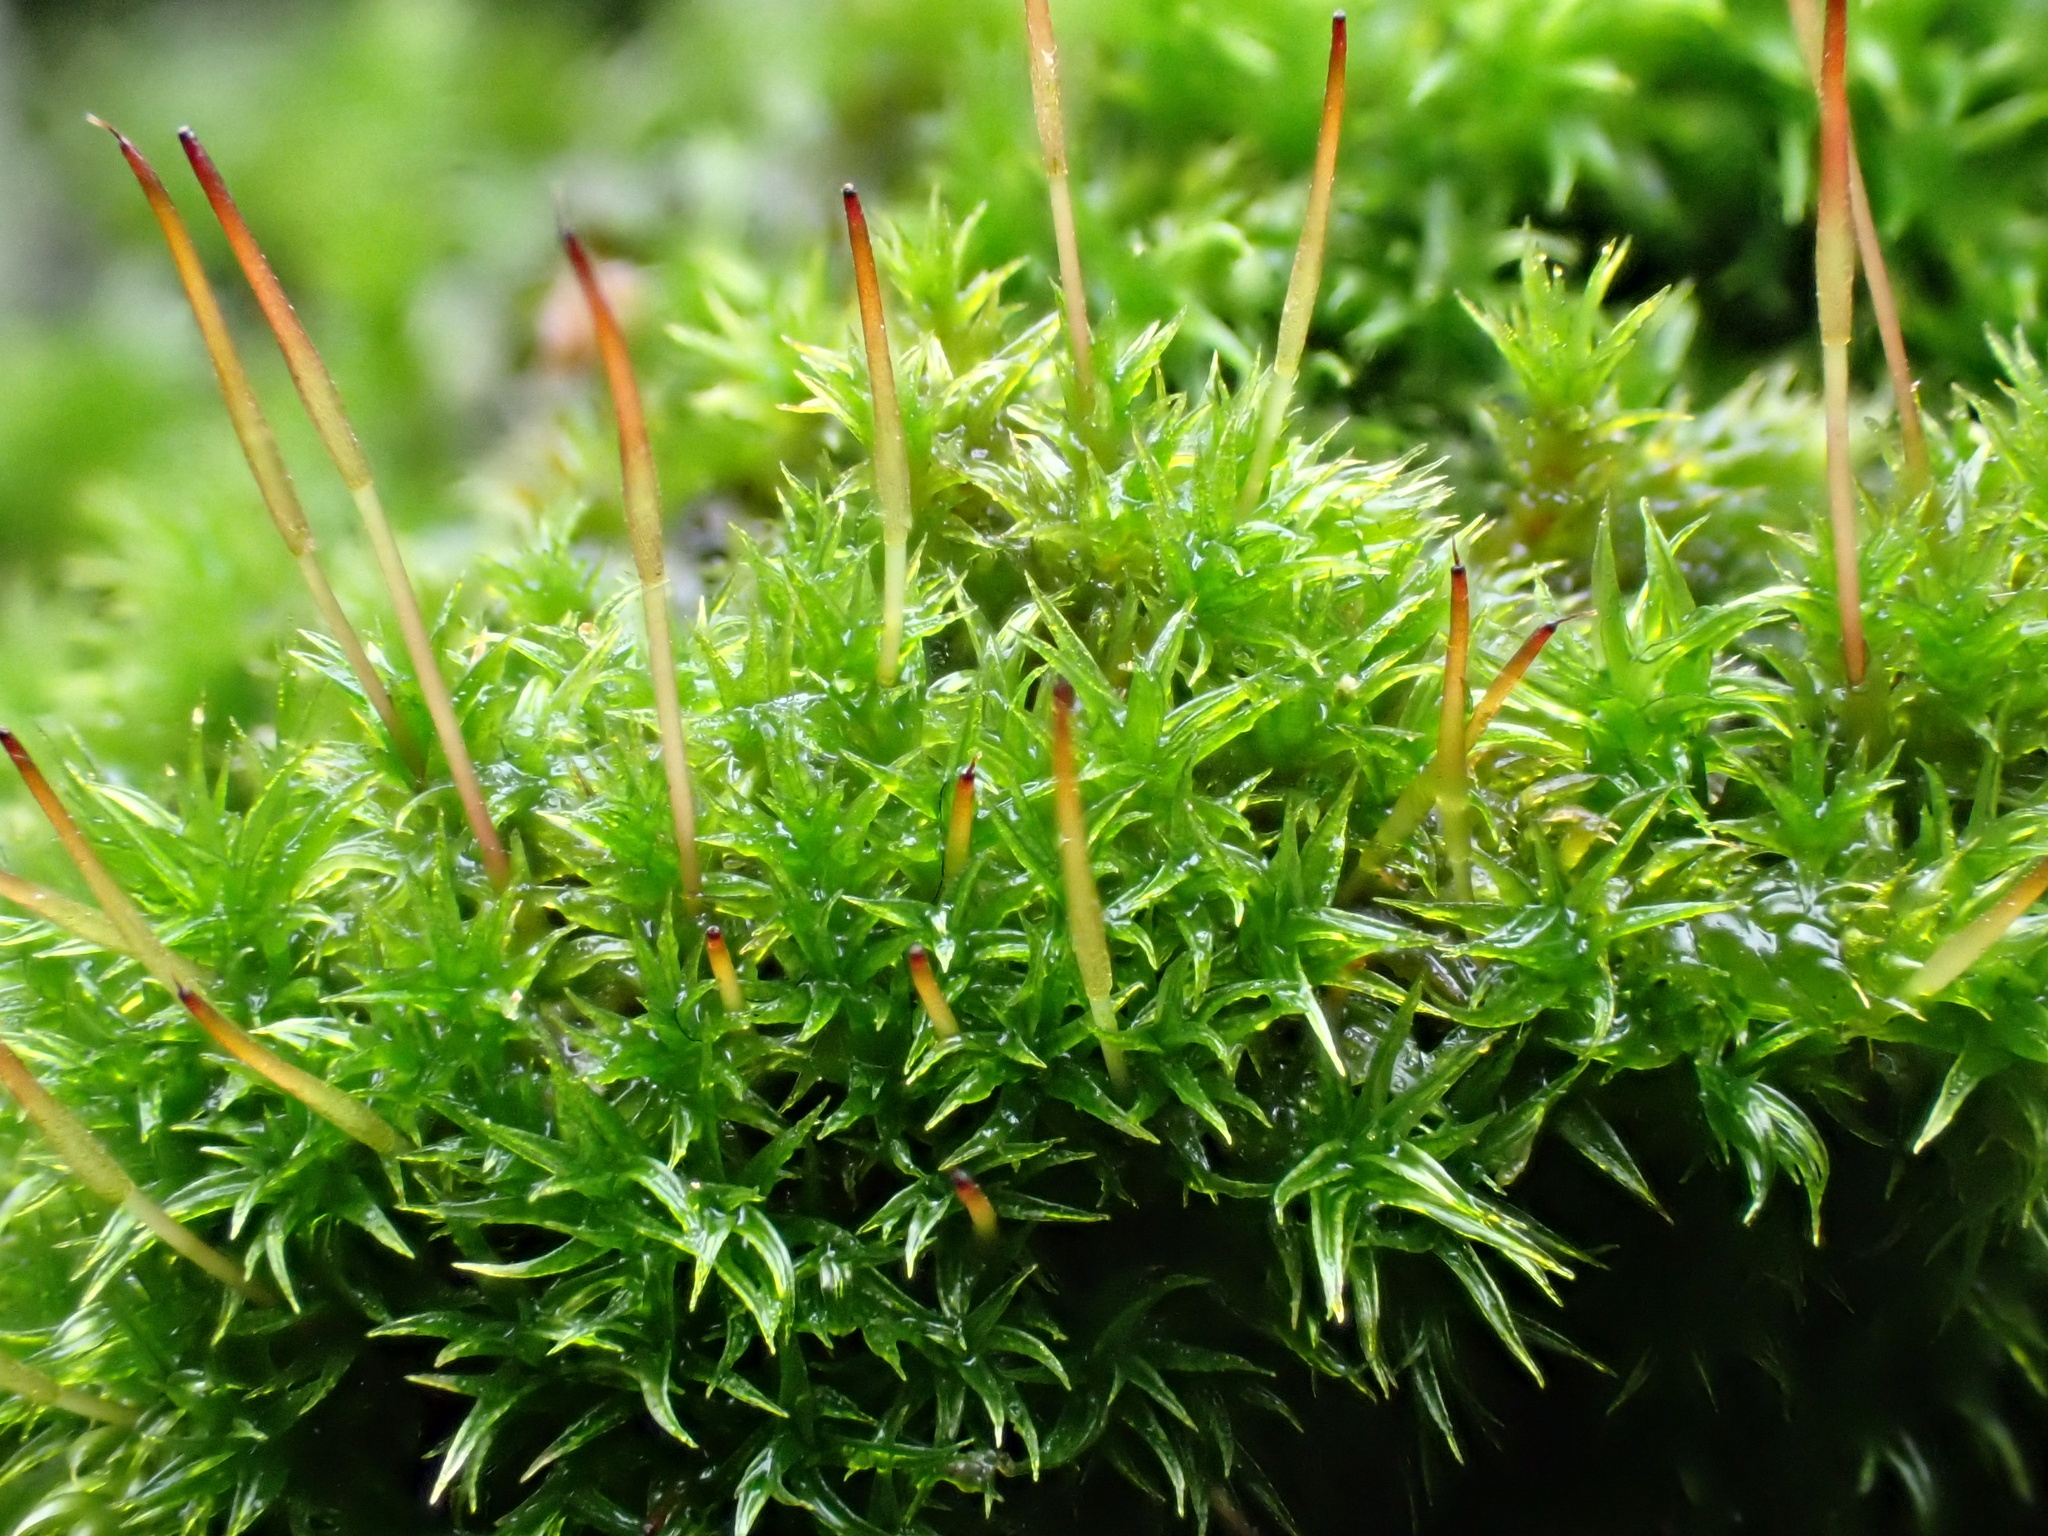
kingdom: Plantae
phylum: Bryophyta
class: Bryopsida
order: Dicranales
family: Ditrichaceae
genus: Ceratodon
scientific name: Ceratodon purpureus
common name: Redshank
